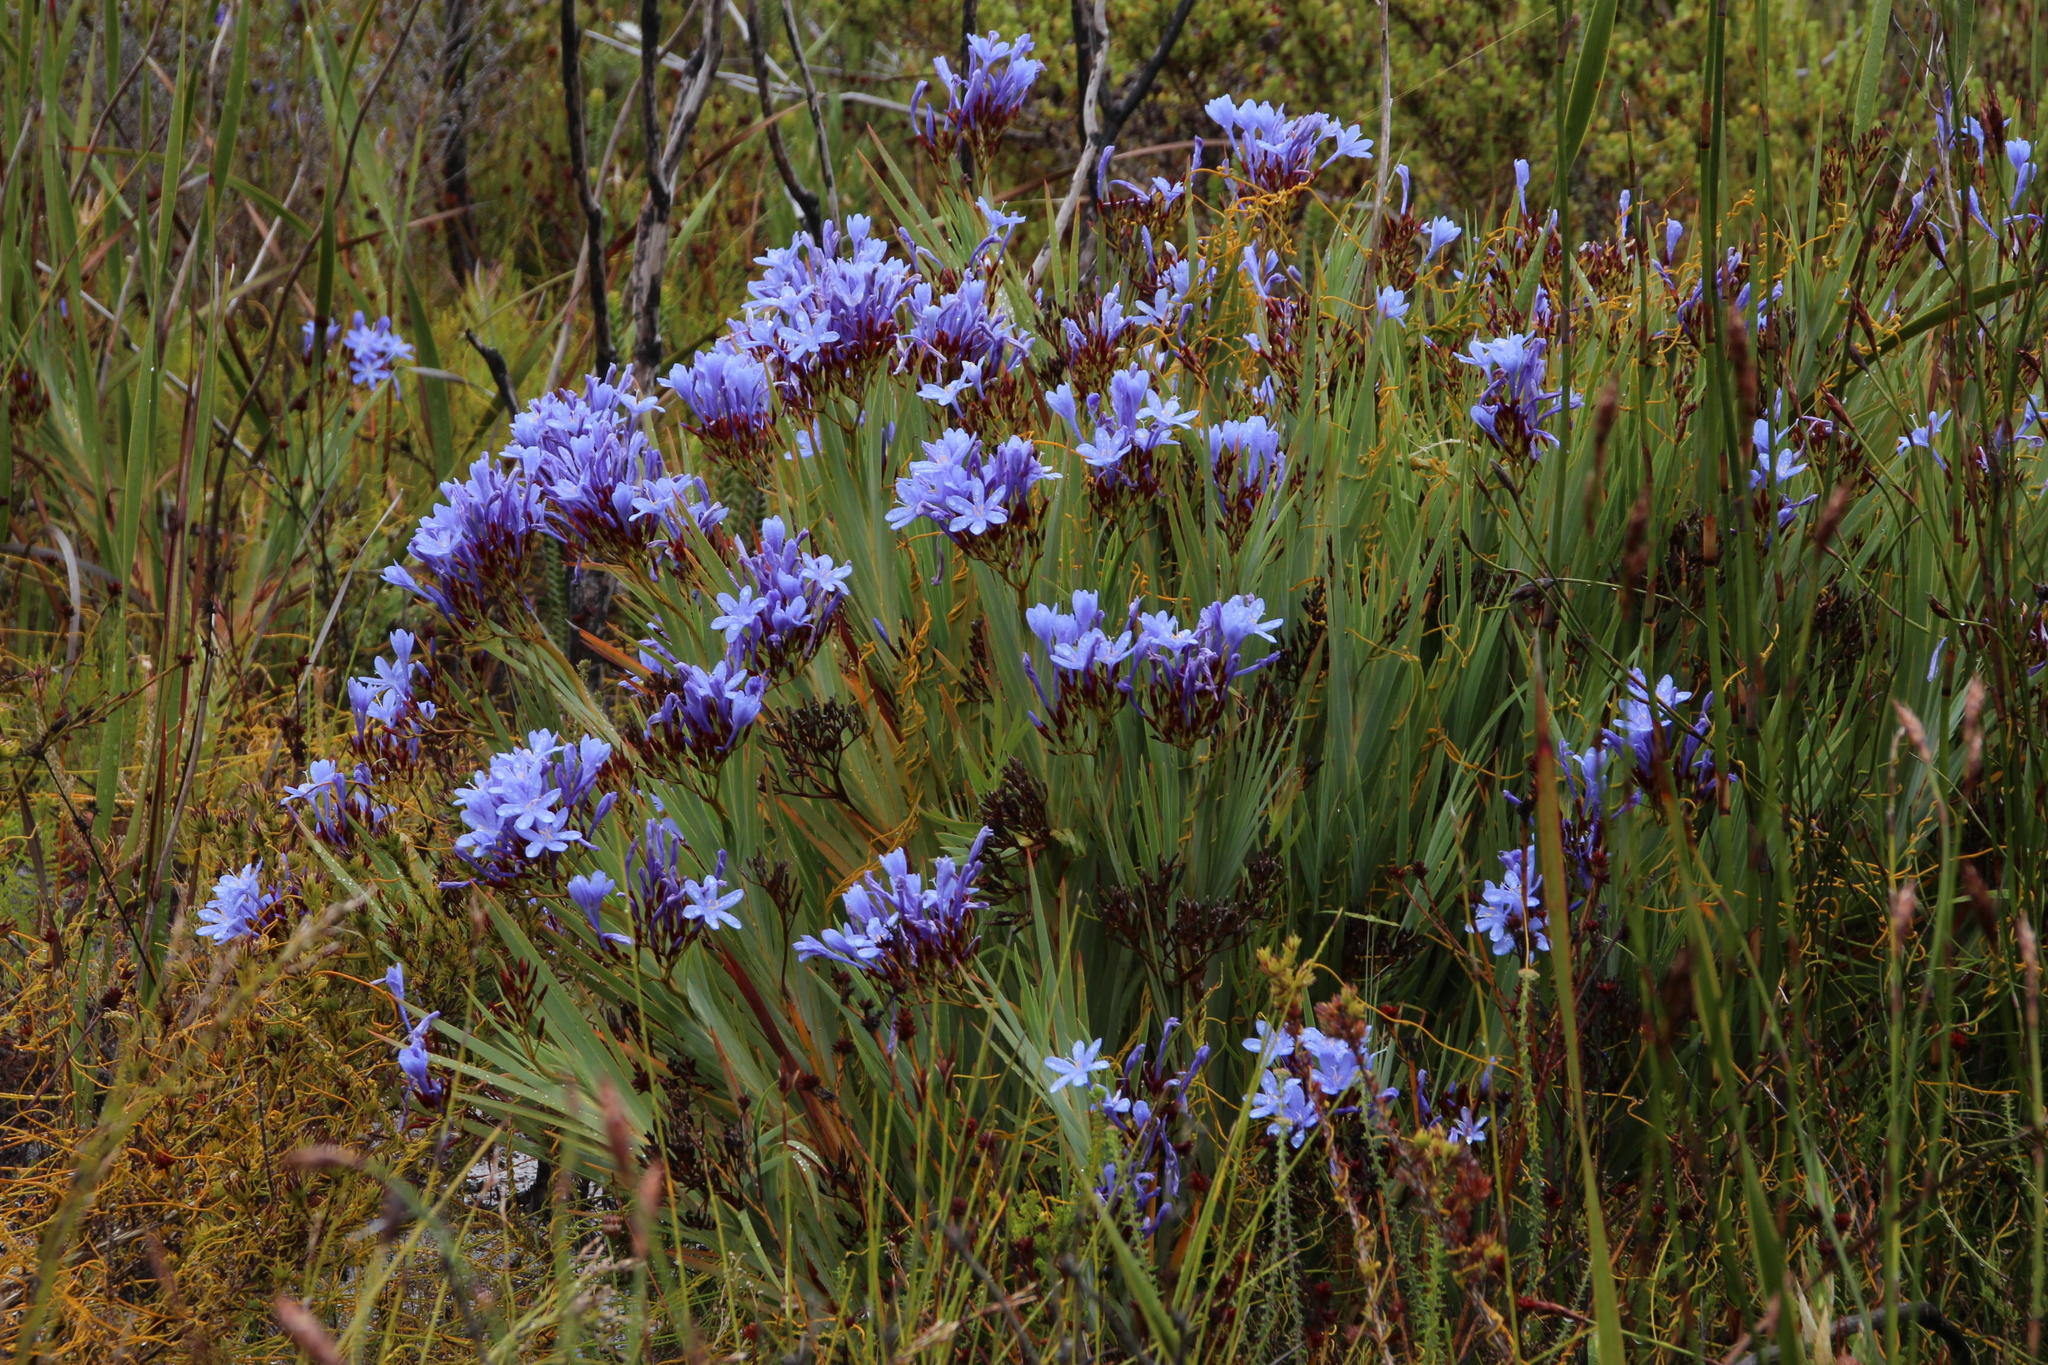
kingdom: Plantae
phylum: Tracheophyta
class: Liliopsida
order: Asparagales
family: Iridaceae
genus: Nivenia
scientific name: Nivenia stokoei
